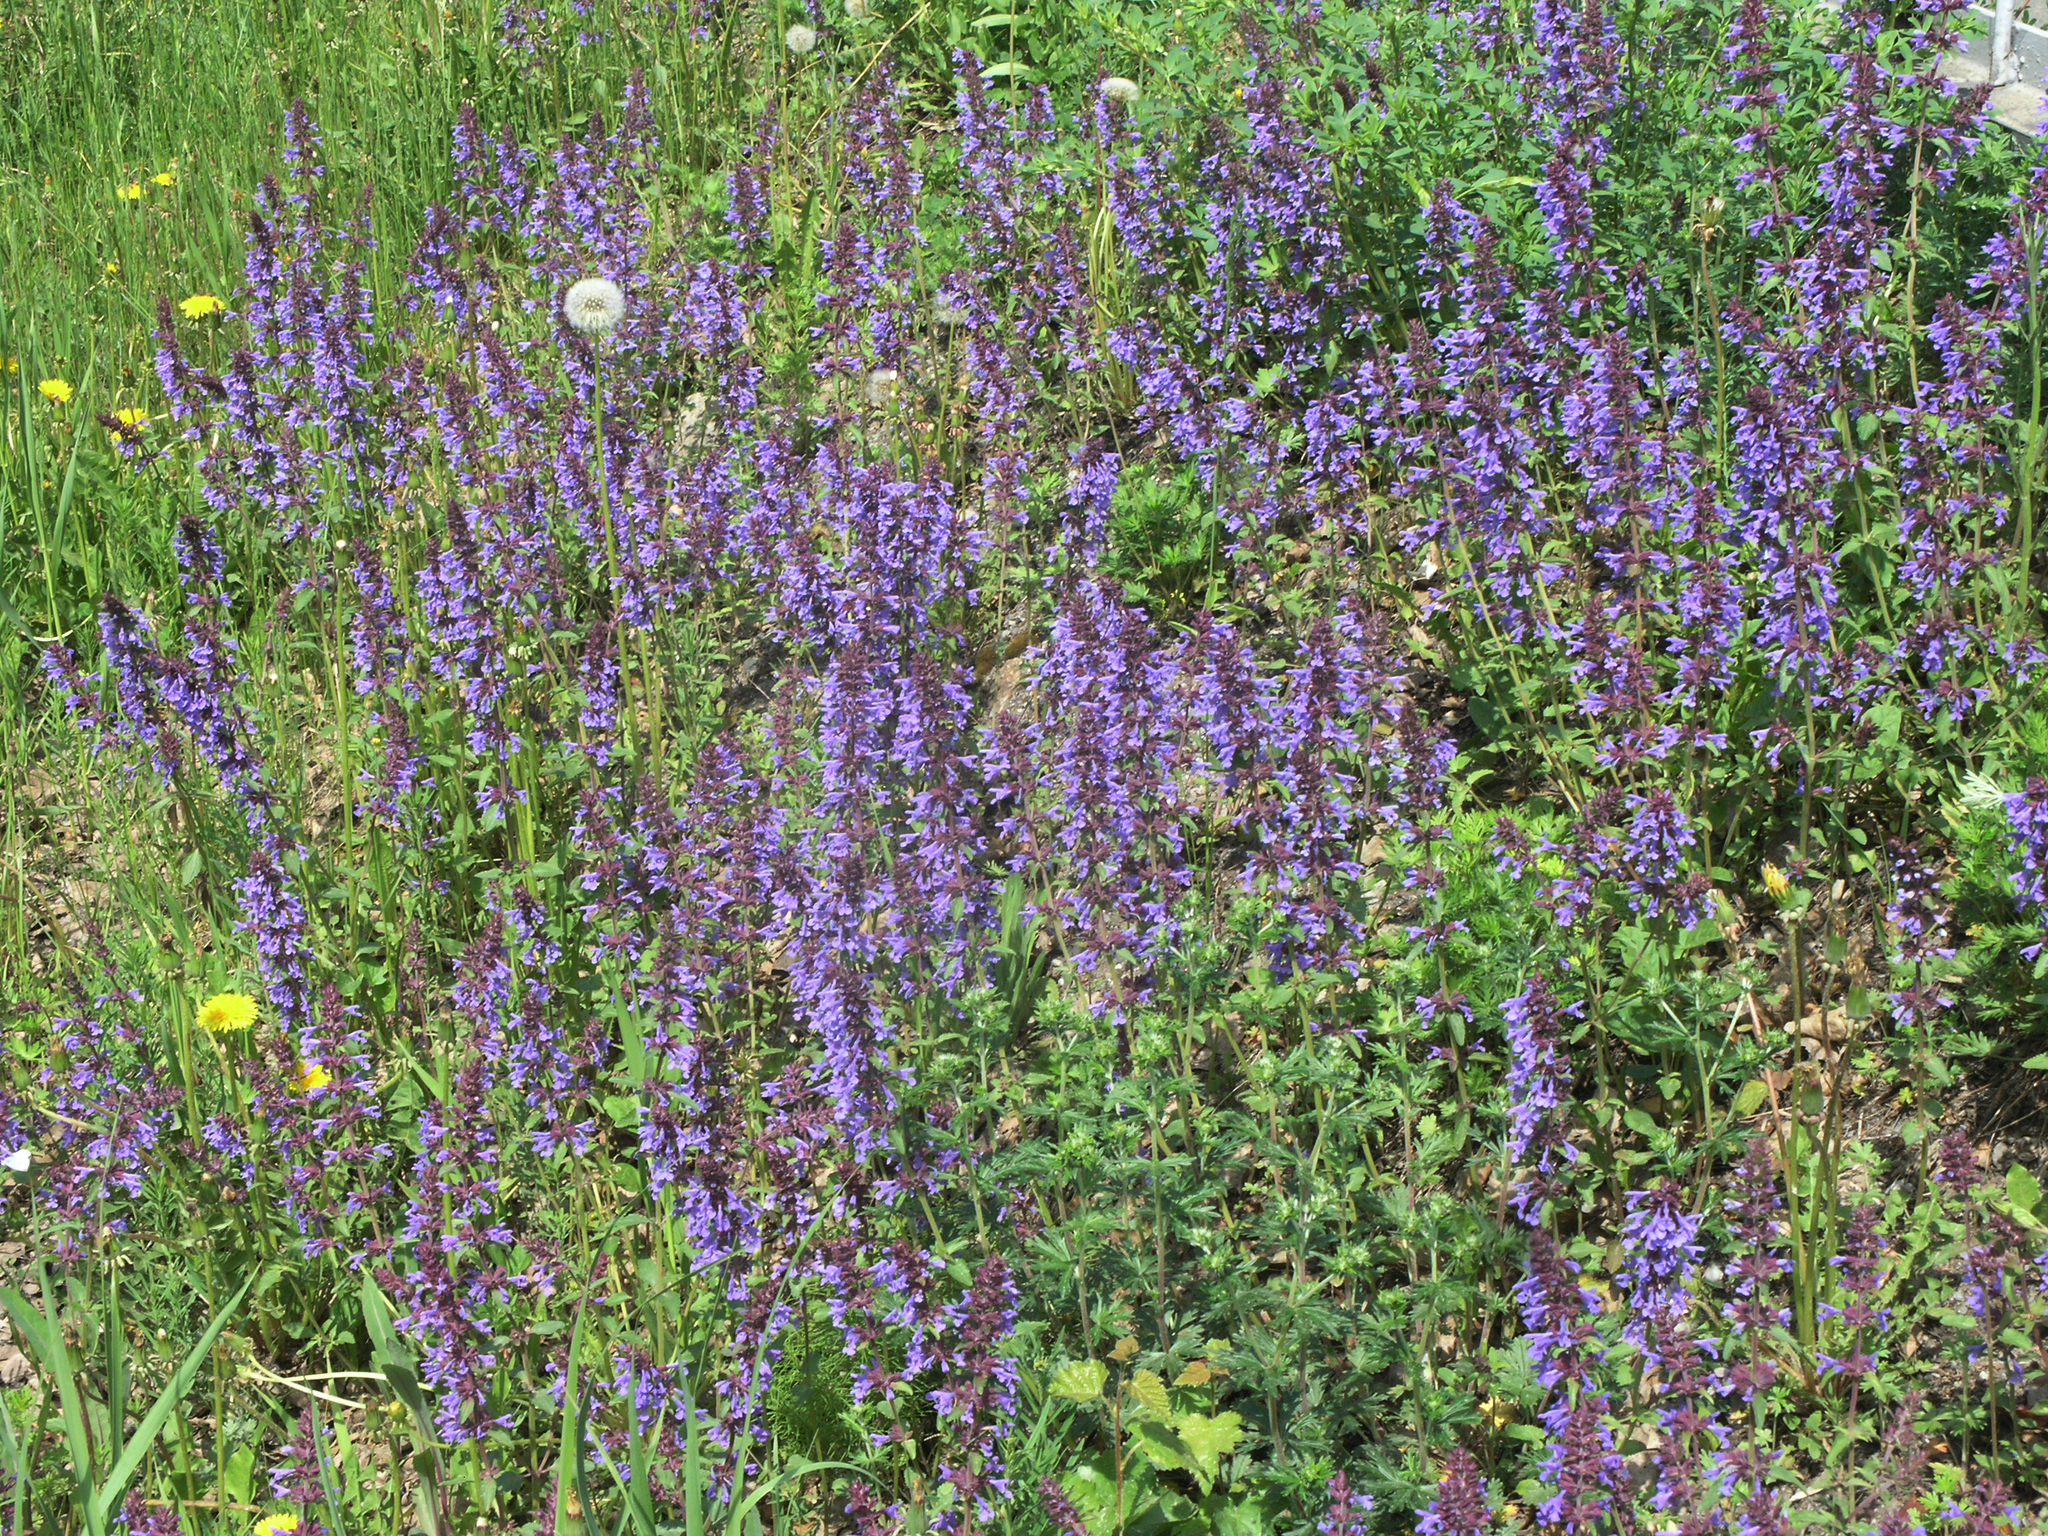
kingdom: Plantae
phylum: Tracheophyta
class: Magnoliopsida
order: Lamiales
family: Lamiaceae
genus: Dracocephalum
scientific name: Dracocephalum nutans
